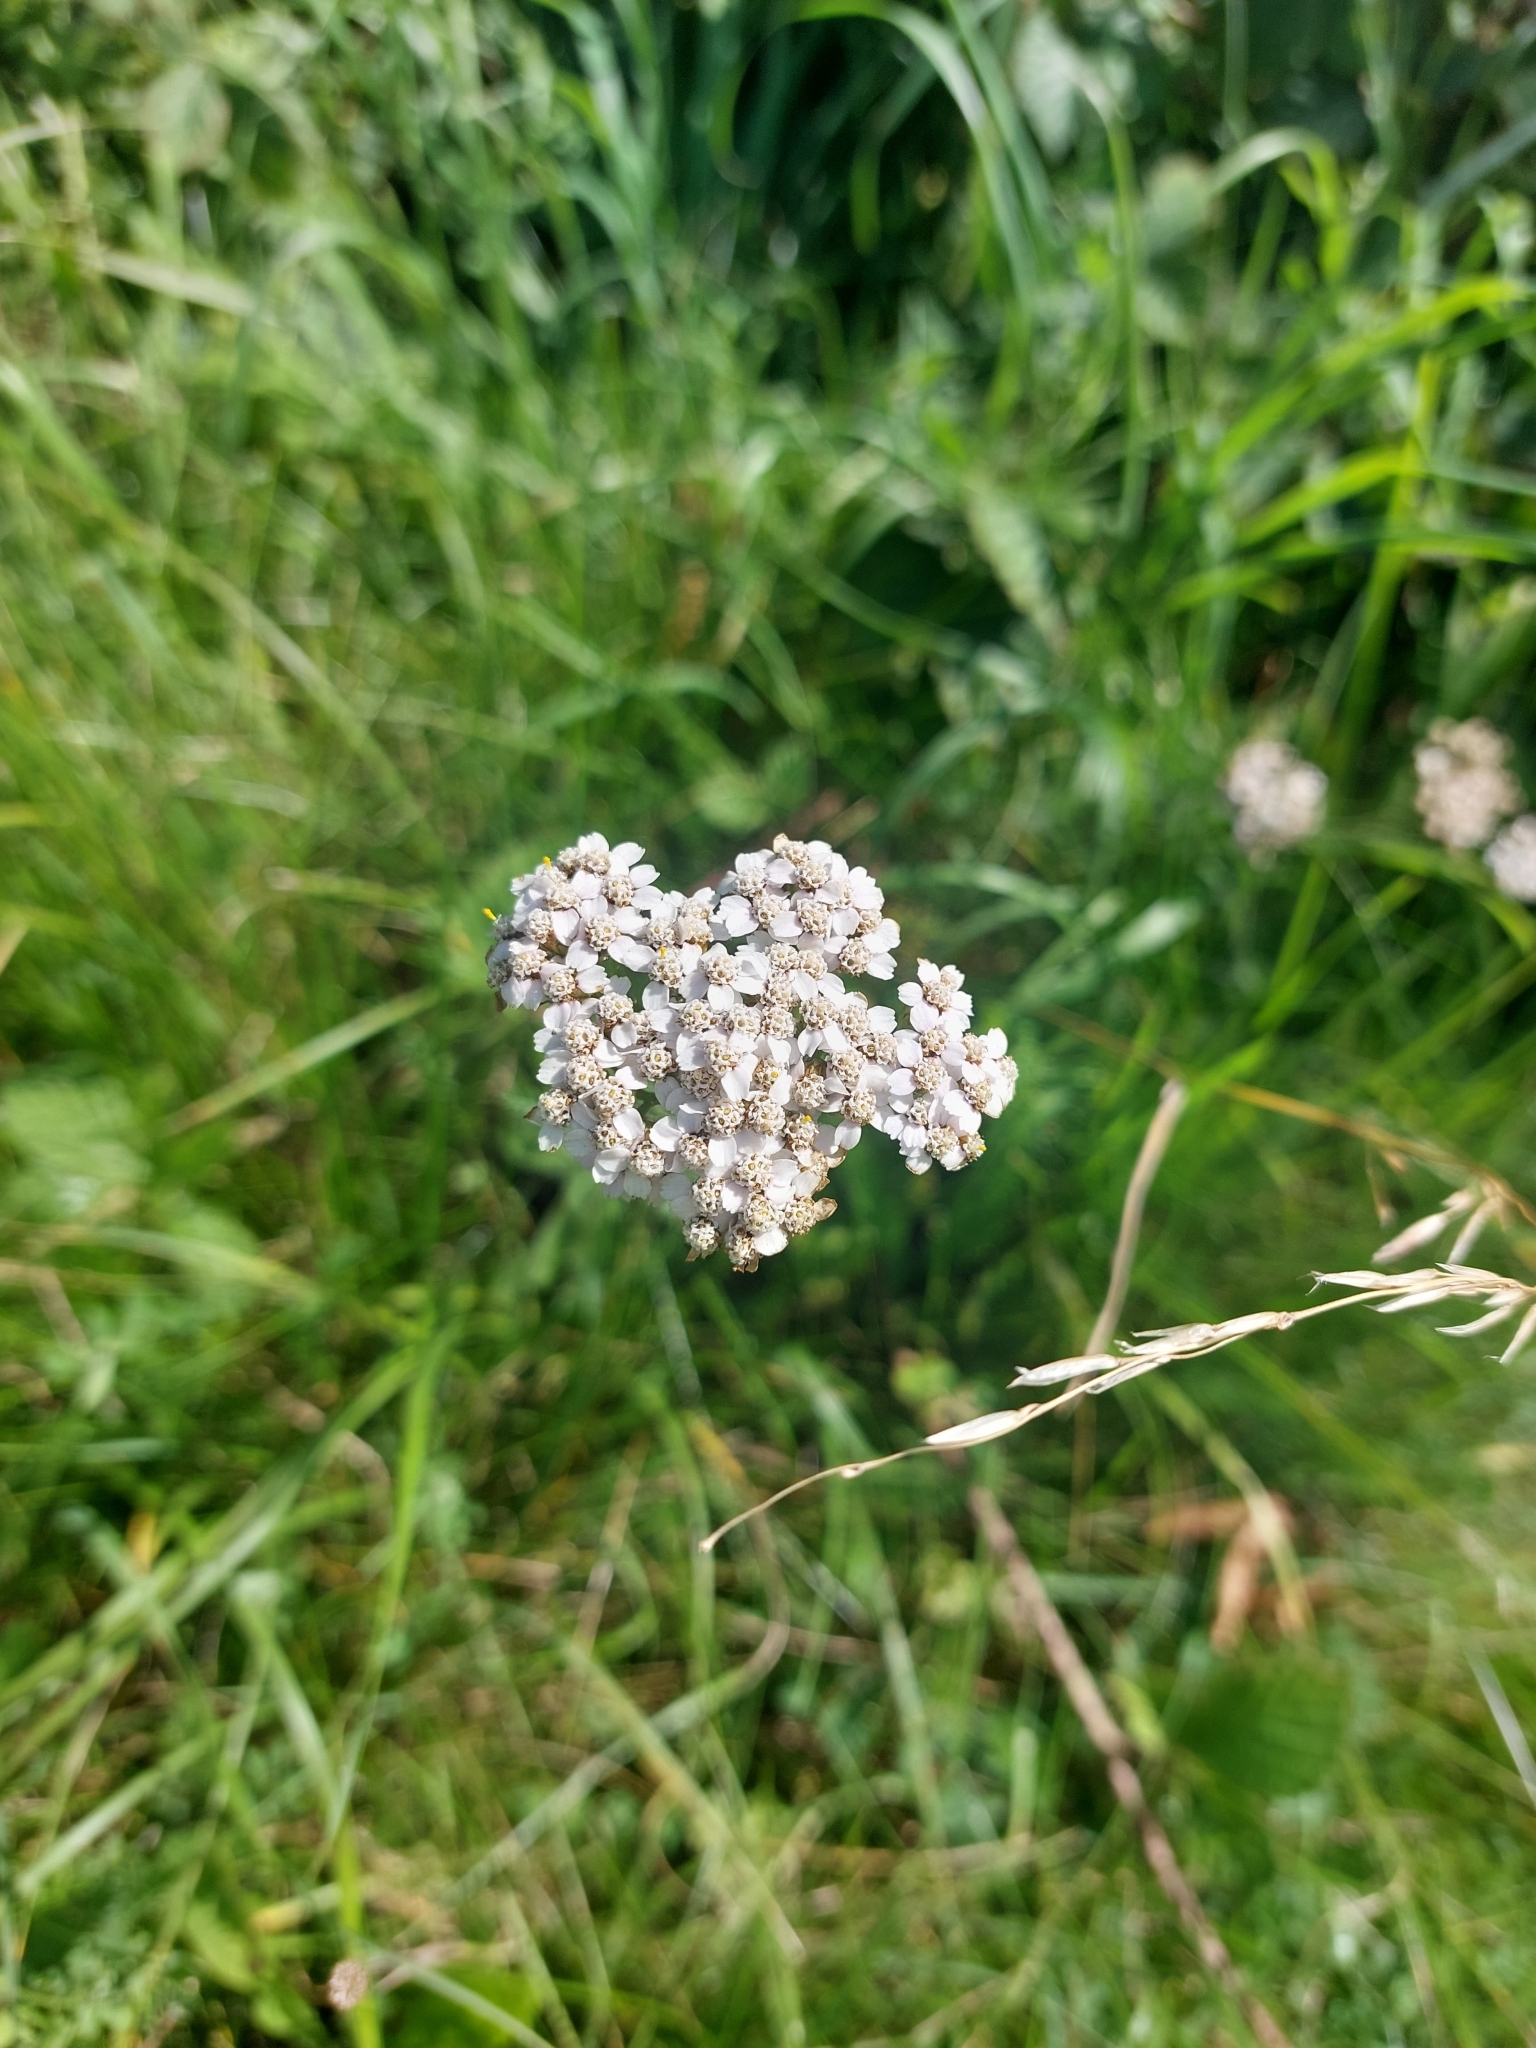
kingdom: Plantae
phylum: Tracheophyta
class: Magnoliopsida
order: Asterales
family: Asteraceae
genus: Achillea
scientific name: Achillea millefolium
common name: Yarrow
